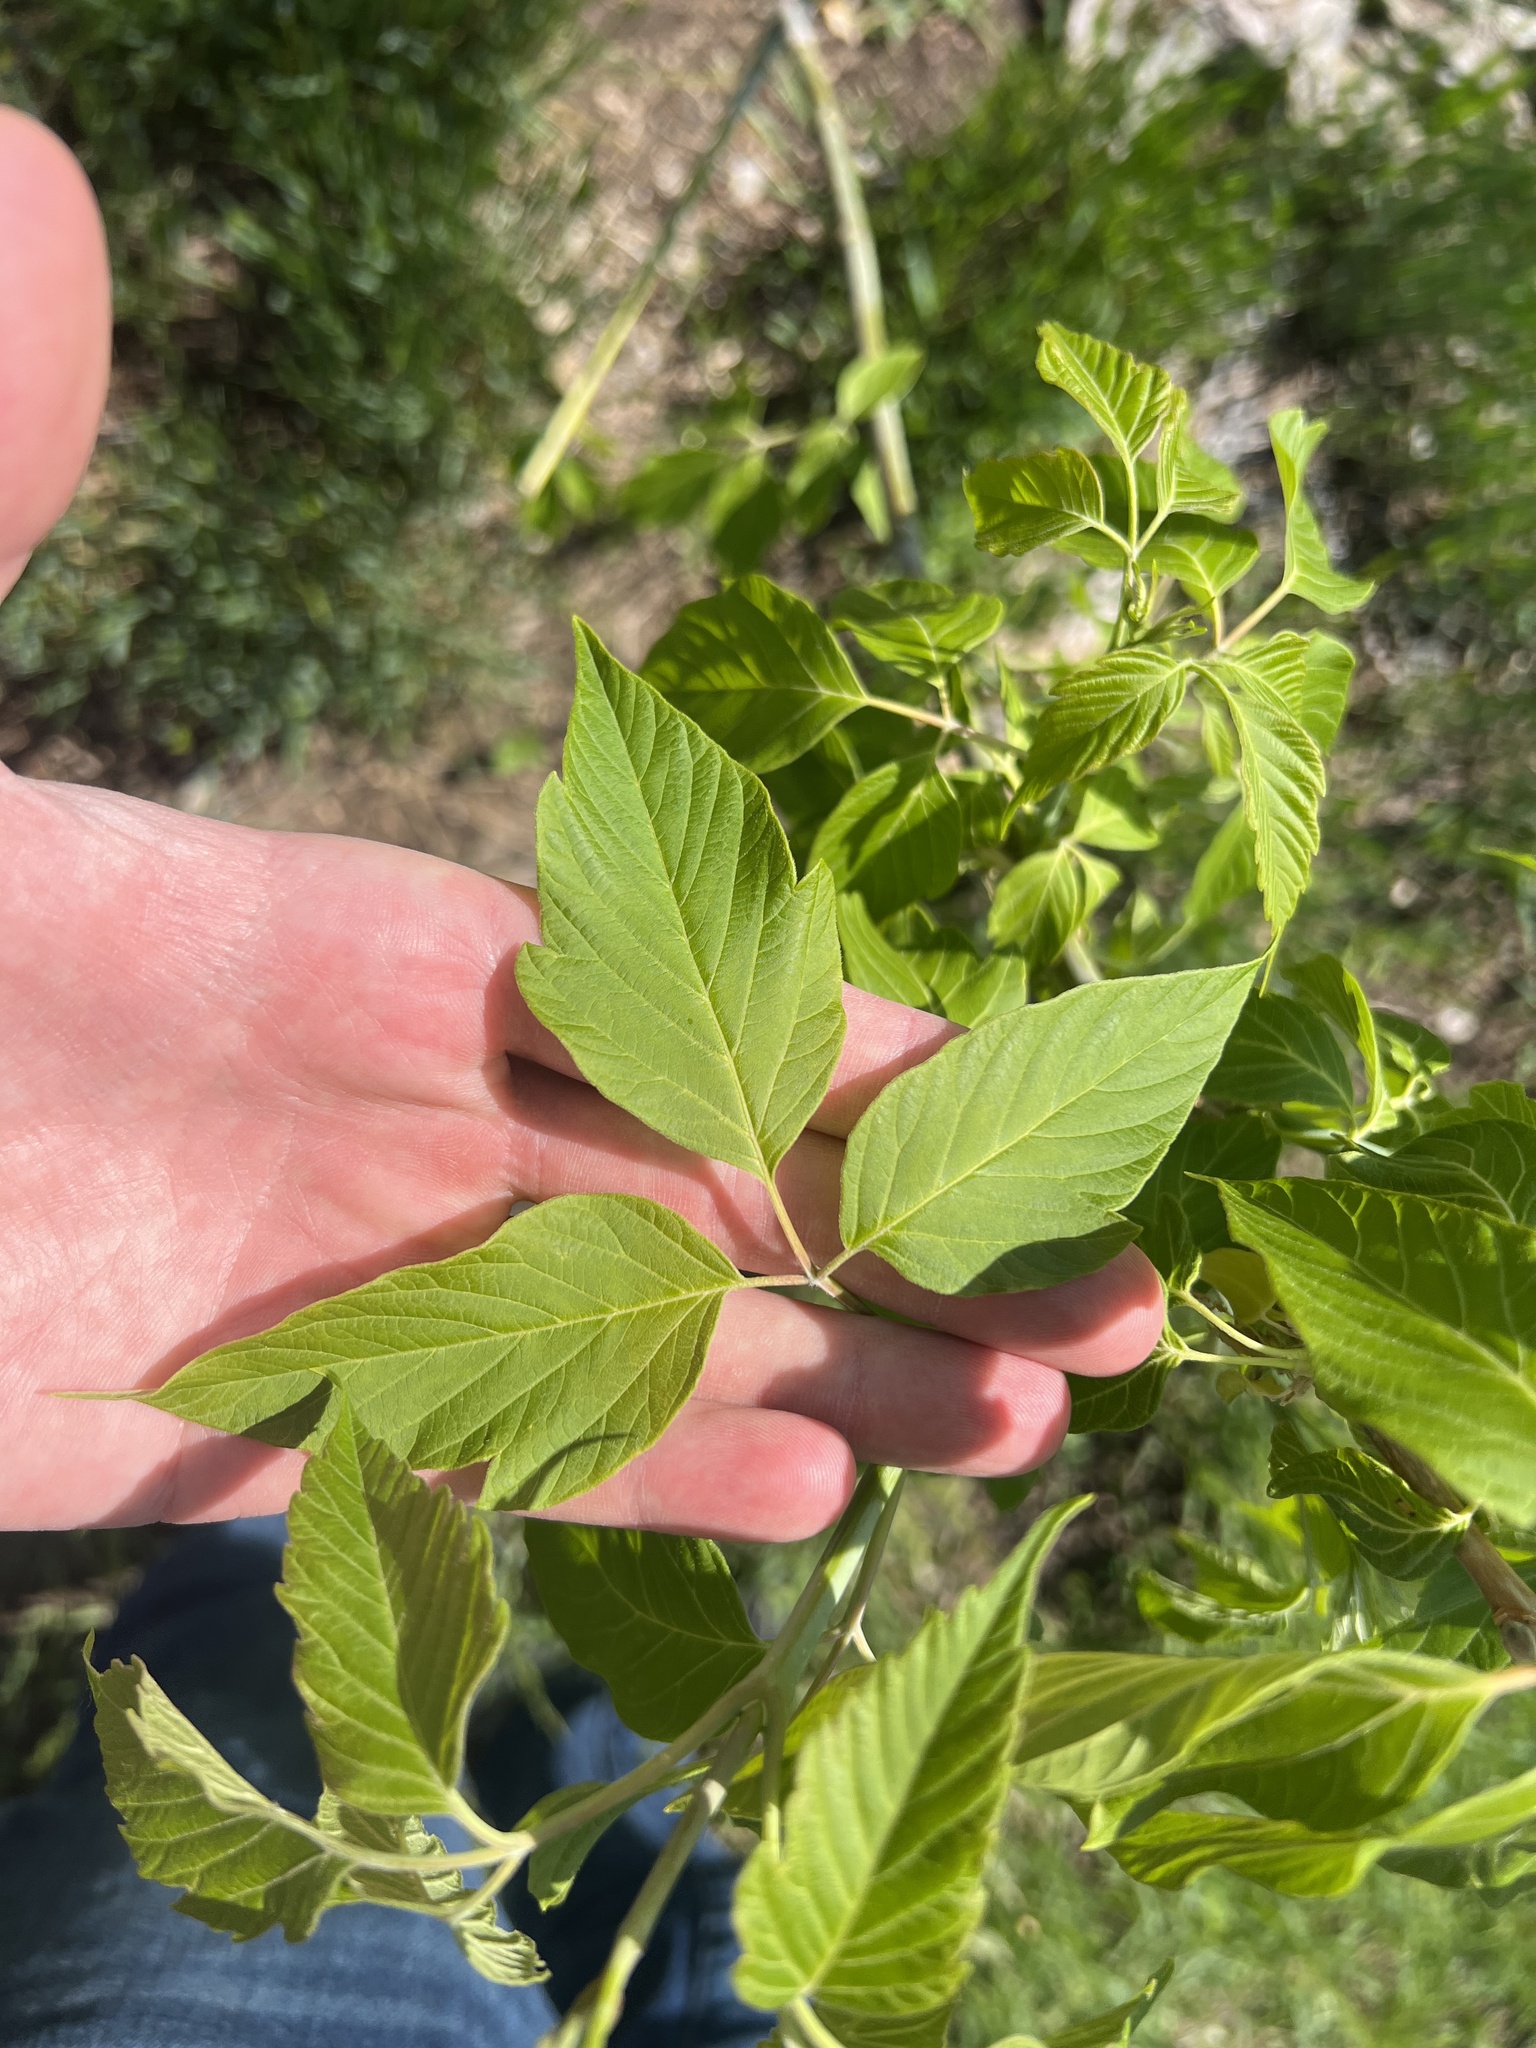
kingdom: Plantae
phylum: Tracheophyta
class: Magnoliopsida
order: Sapindales
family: Sapindaceae
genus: Acer
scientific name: Acer negundo
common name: Ashleaf maple
